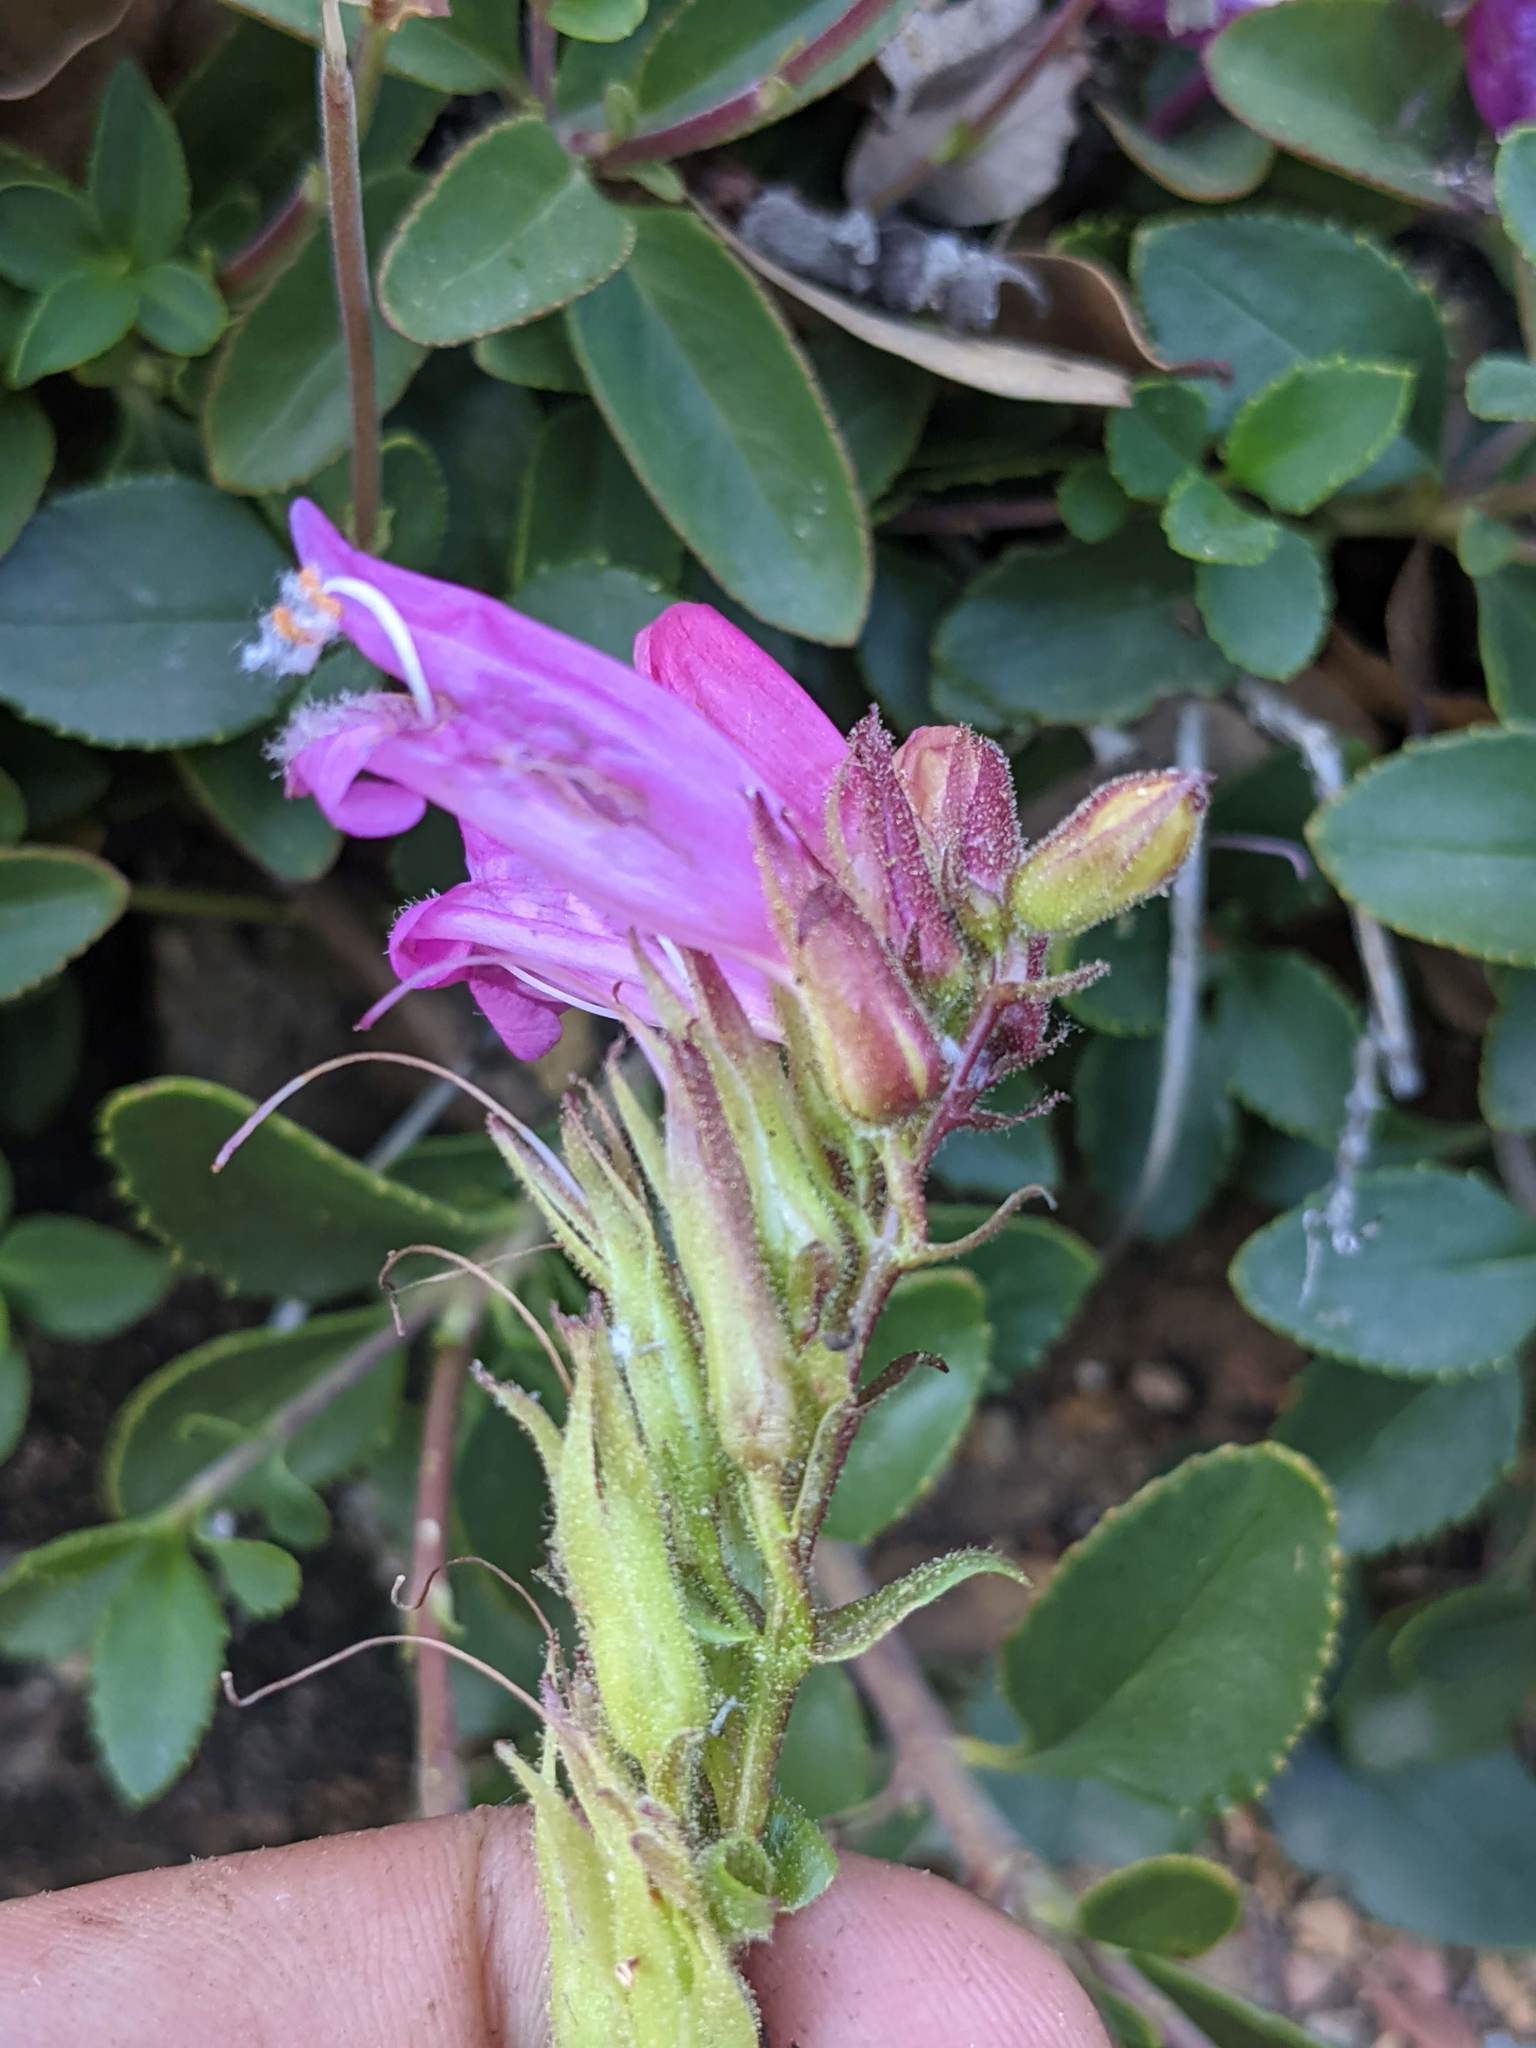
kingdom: Plantae
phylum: Tracheophyta
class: Magnoliopsida
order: Lamiales
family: Plantaginaceae
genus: Penstemon
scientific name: Penstemon newberryi
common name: Mountain-pride
